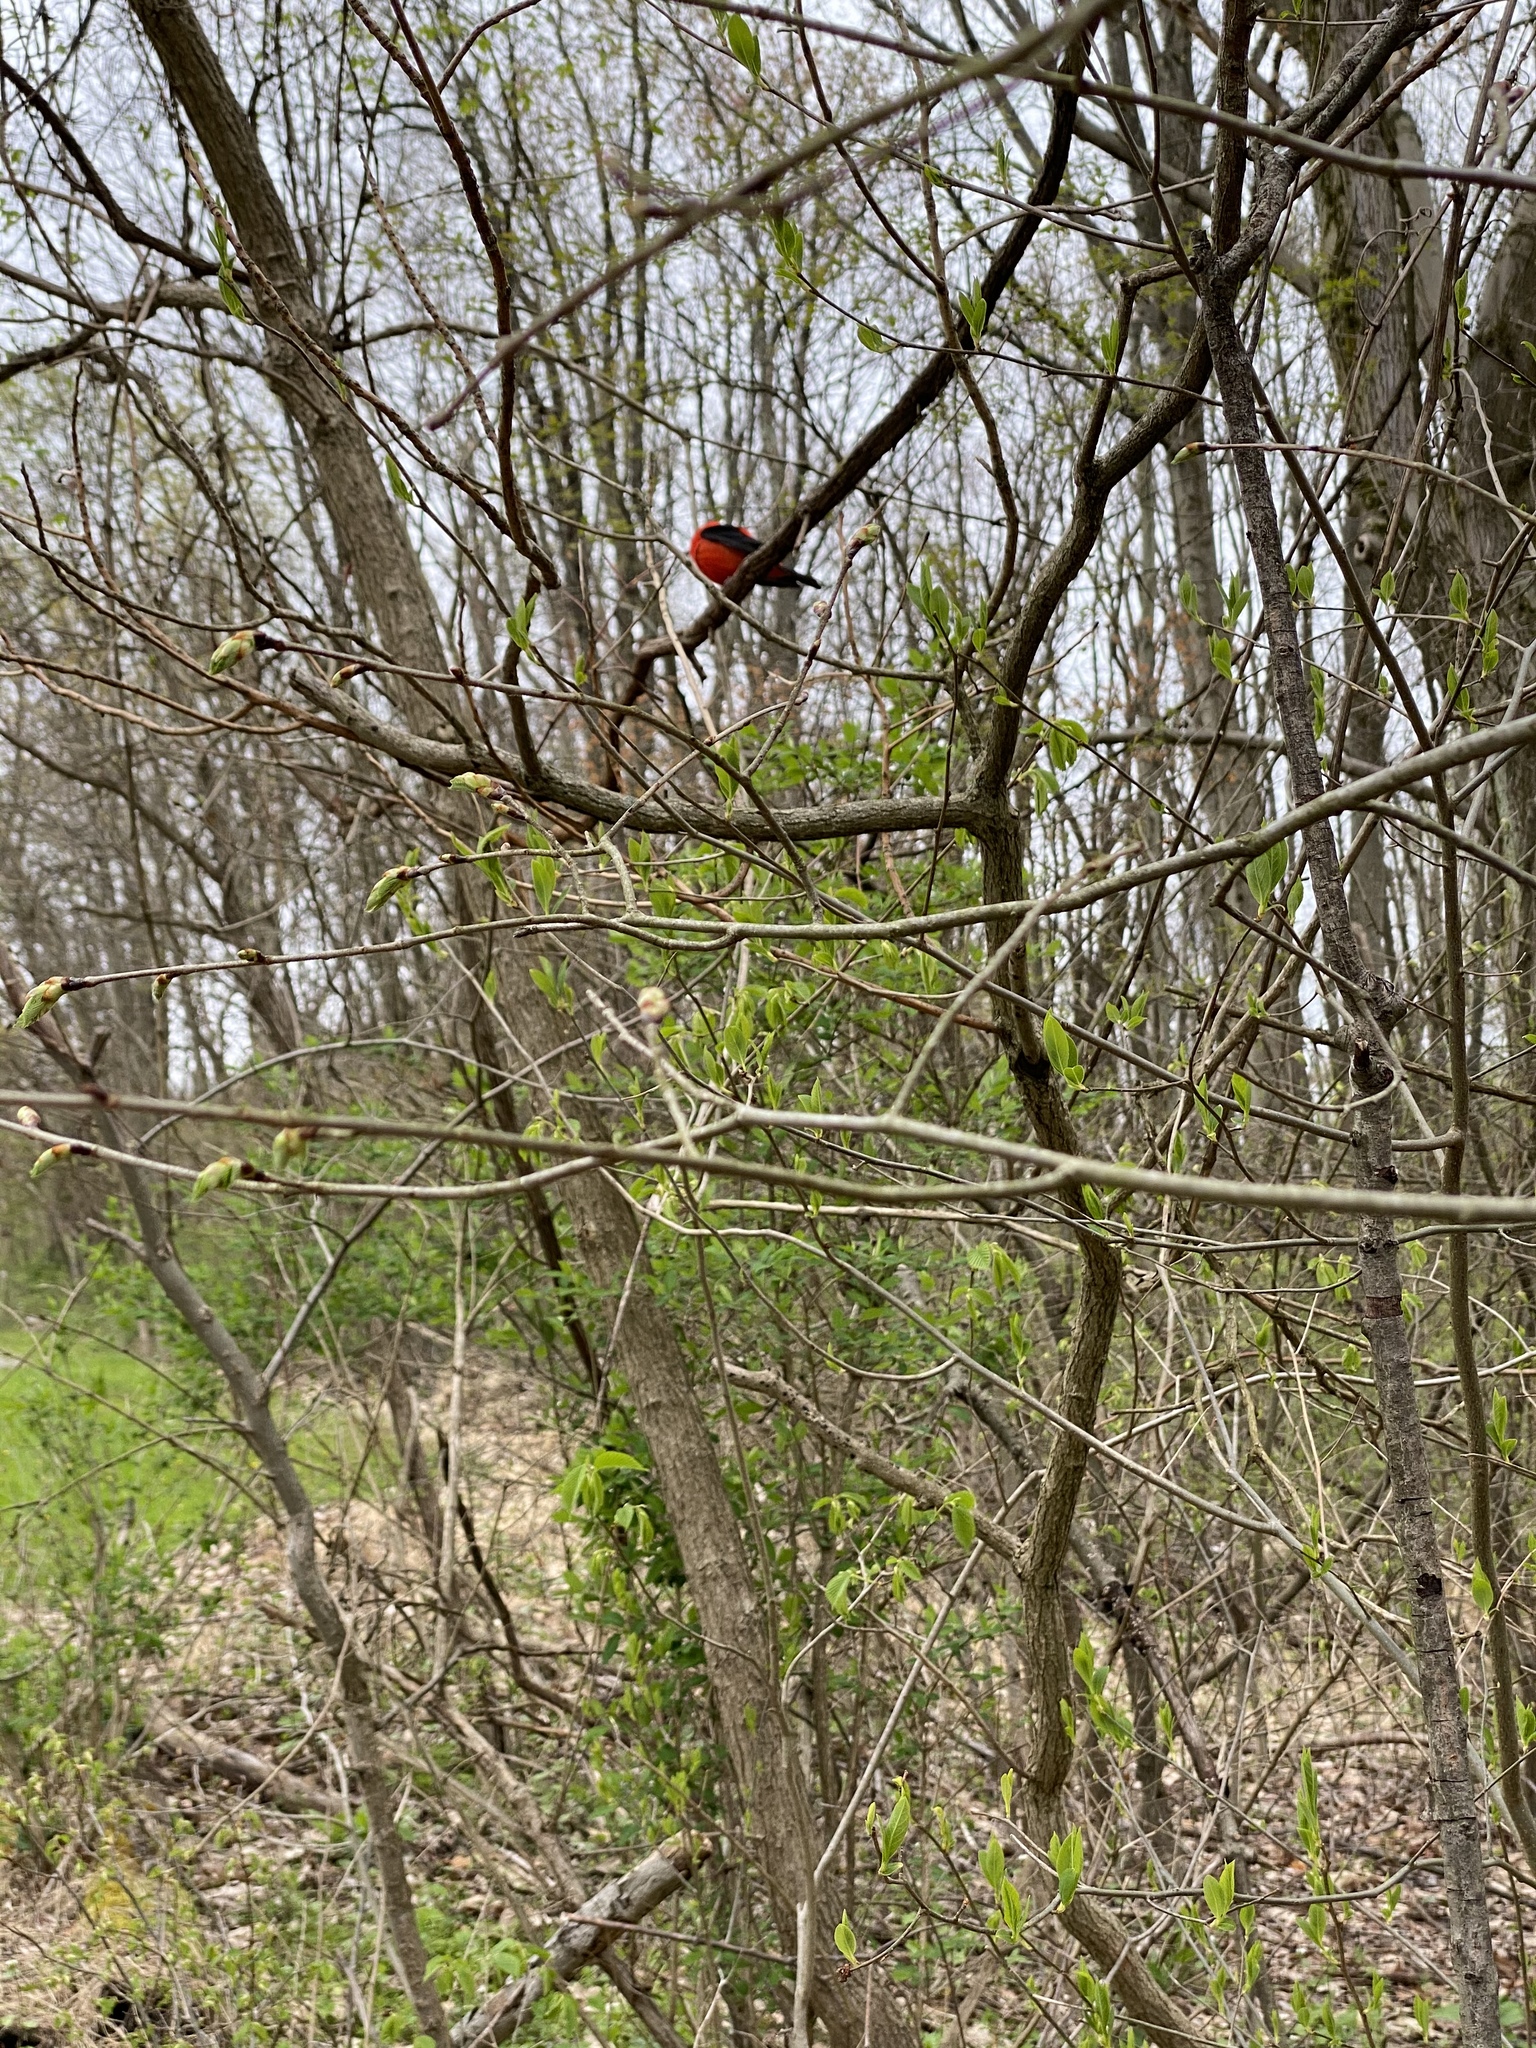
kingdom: Animalia
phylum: Chordata
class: Aves
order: Passeriformes
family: Cardinalidae
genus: Piranga
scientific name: Piranga olivacea
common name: Scarlet tanager
